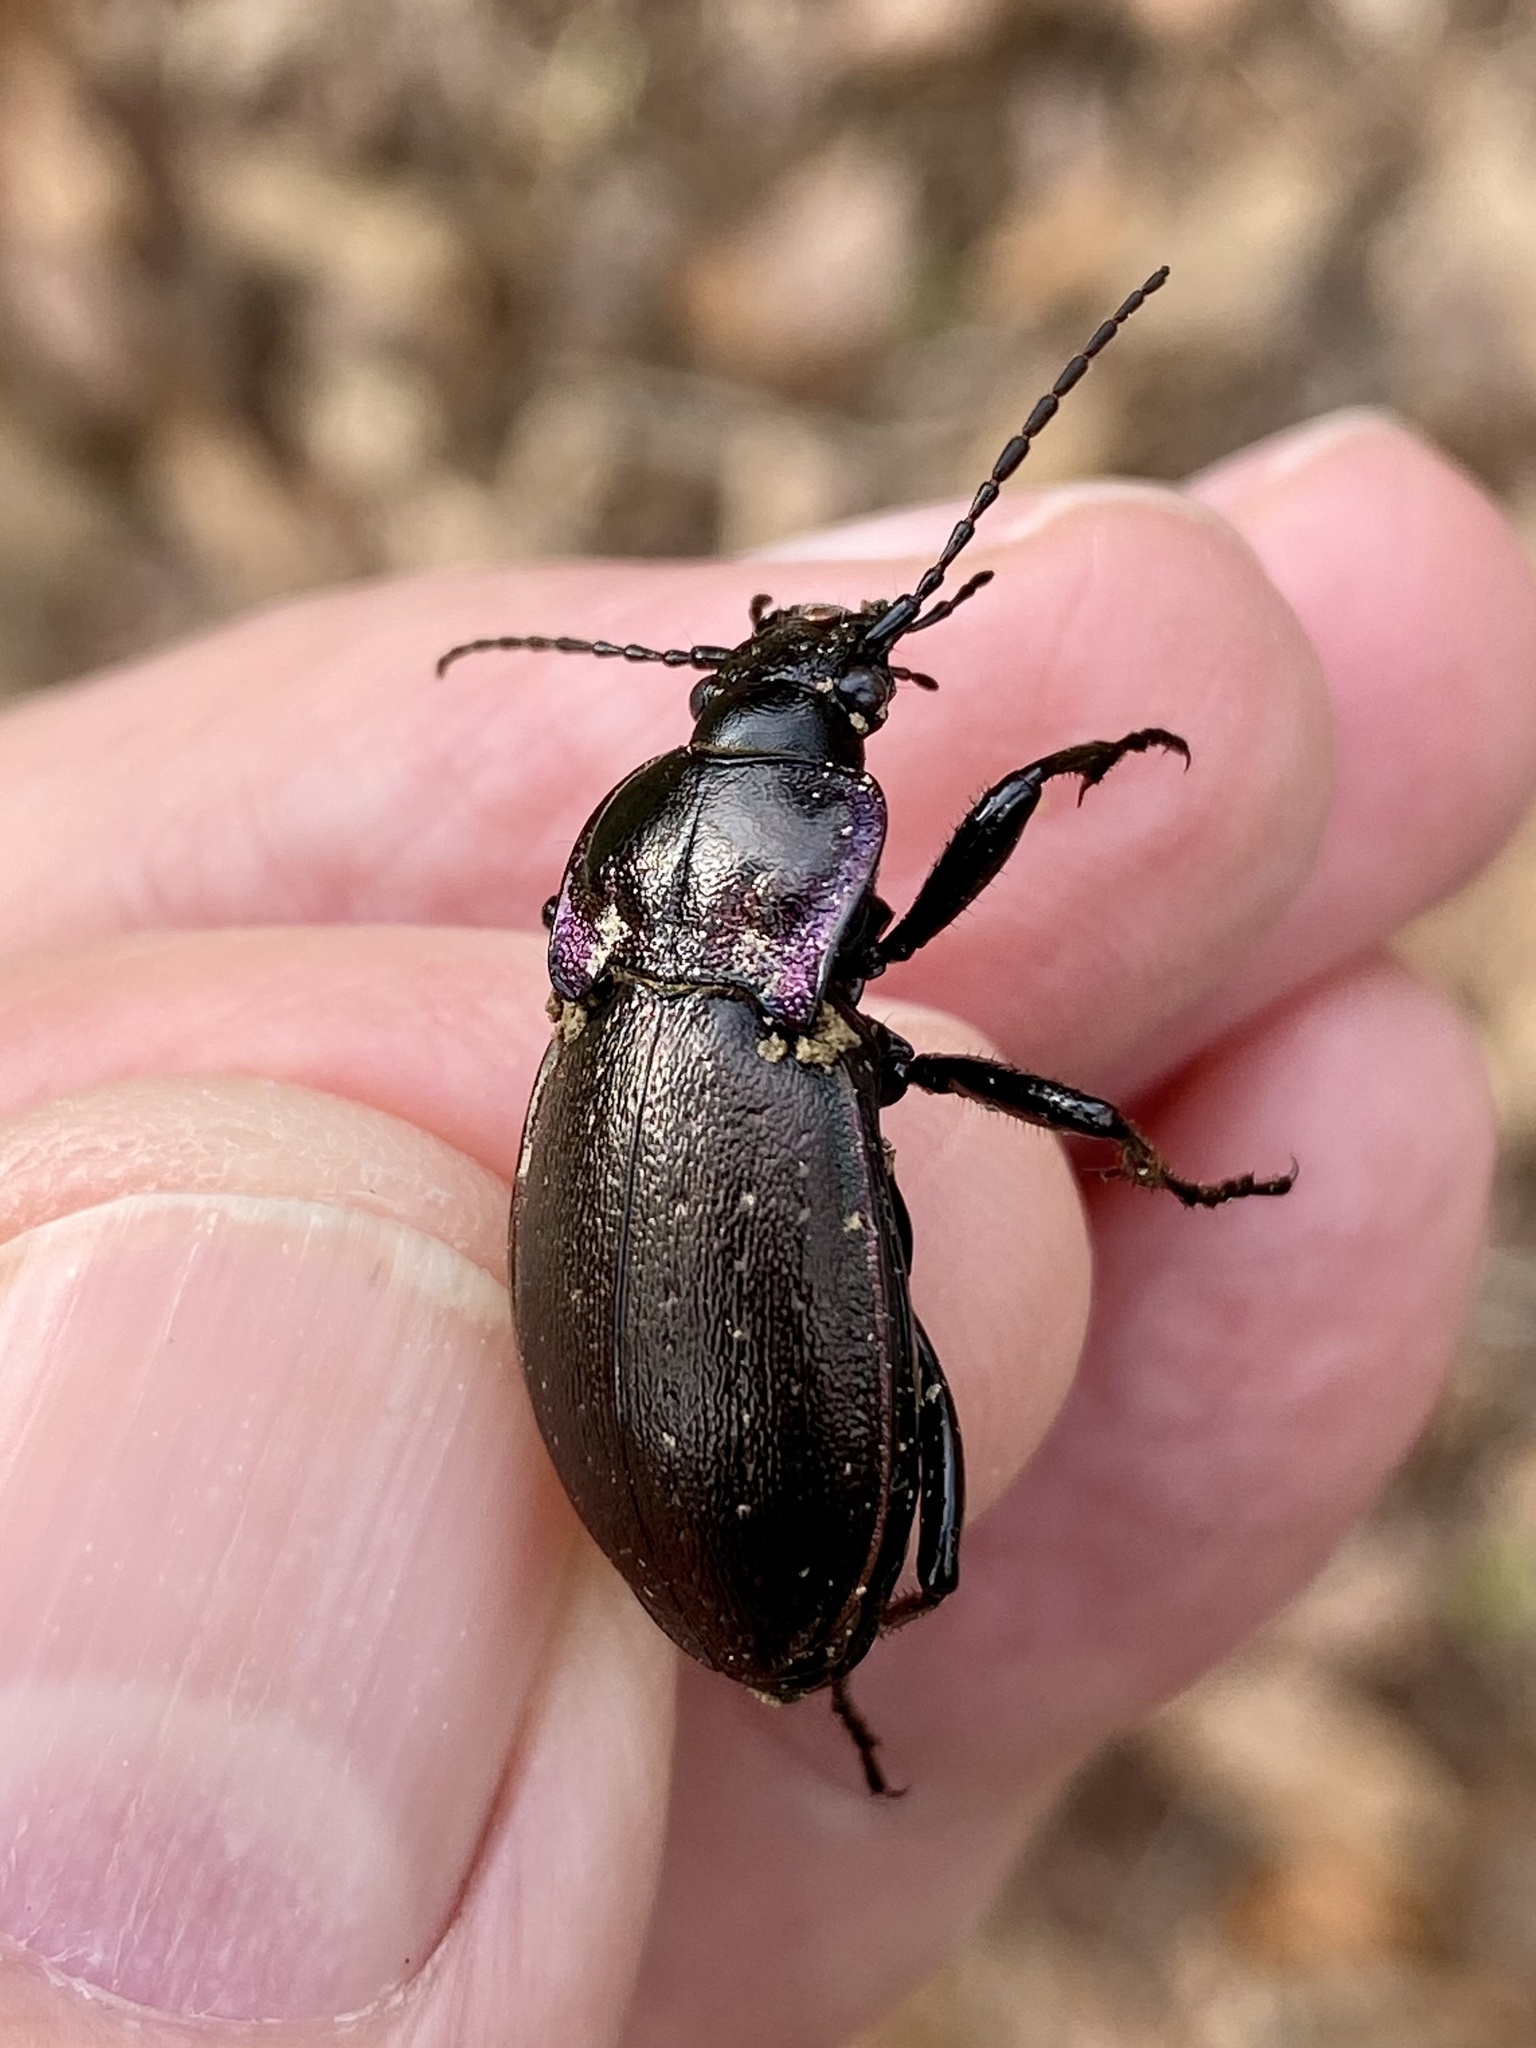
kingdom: Animalia
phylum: Arthropoda
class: Insecta
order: Coleoptera
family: Carabidae
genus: Carabus
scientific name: Carabus nemoralis
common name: European ground beetle
